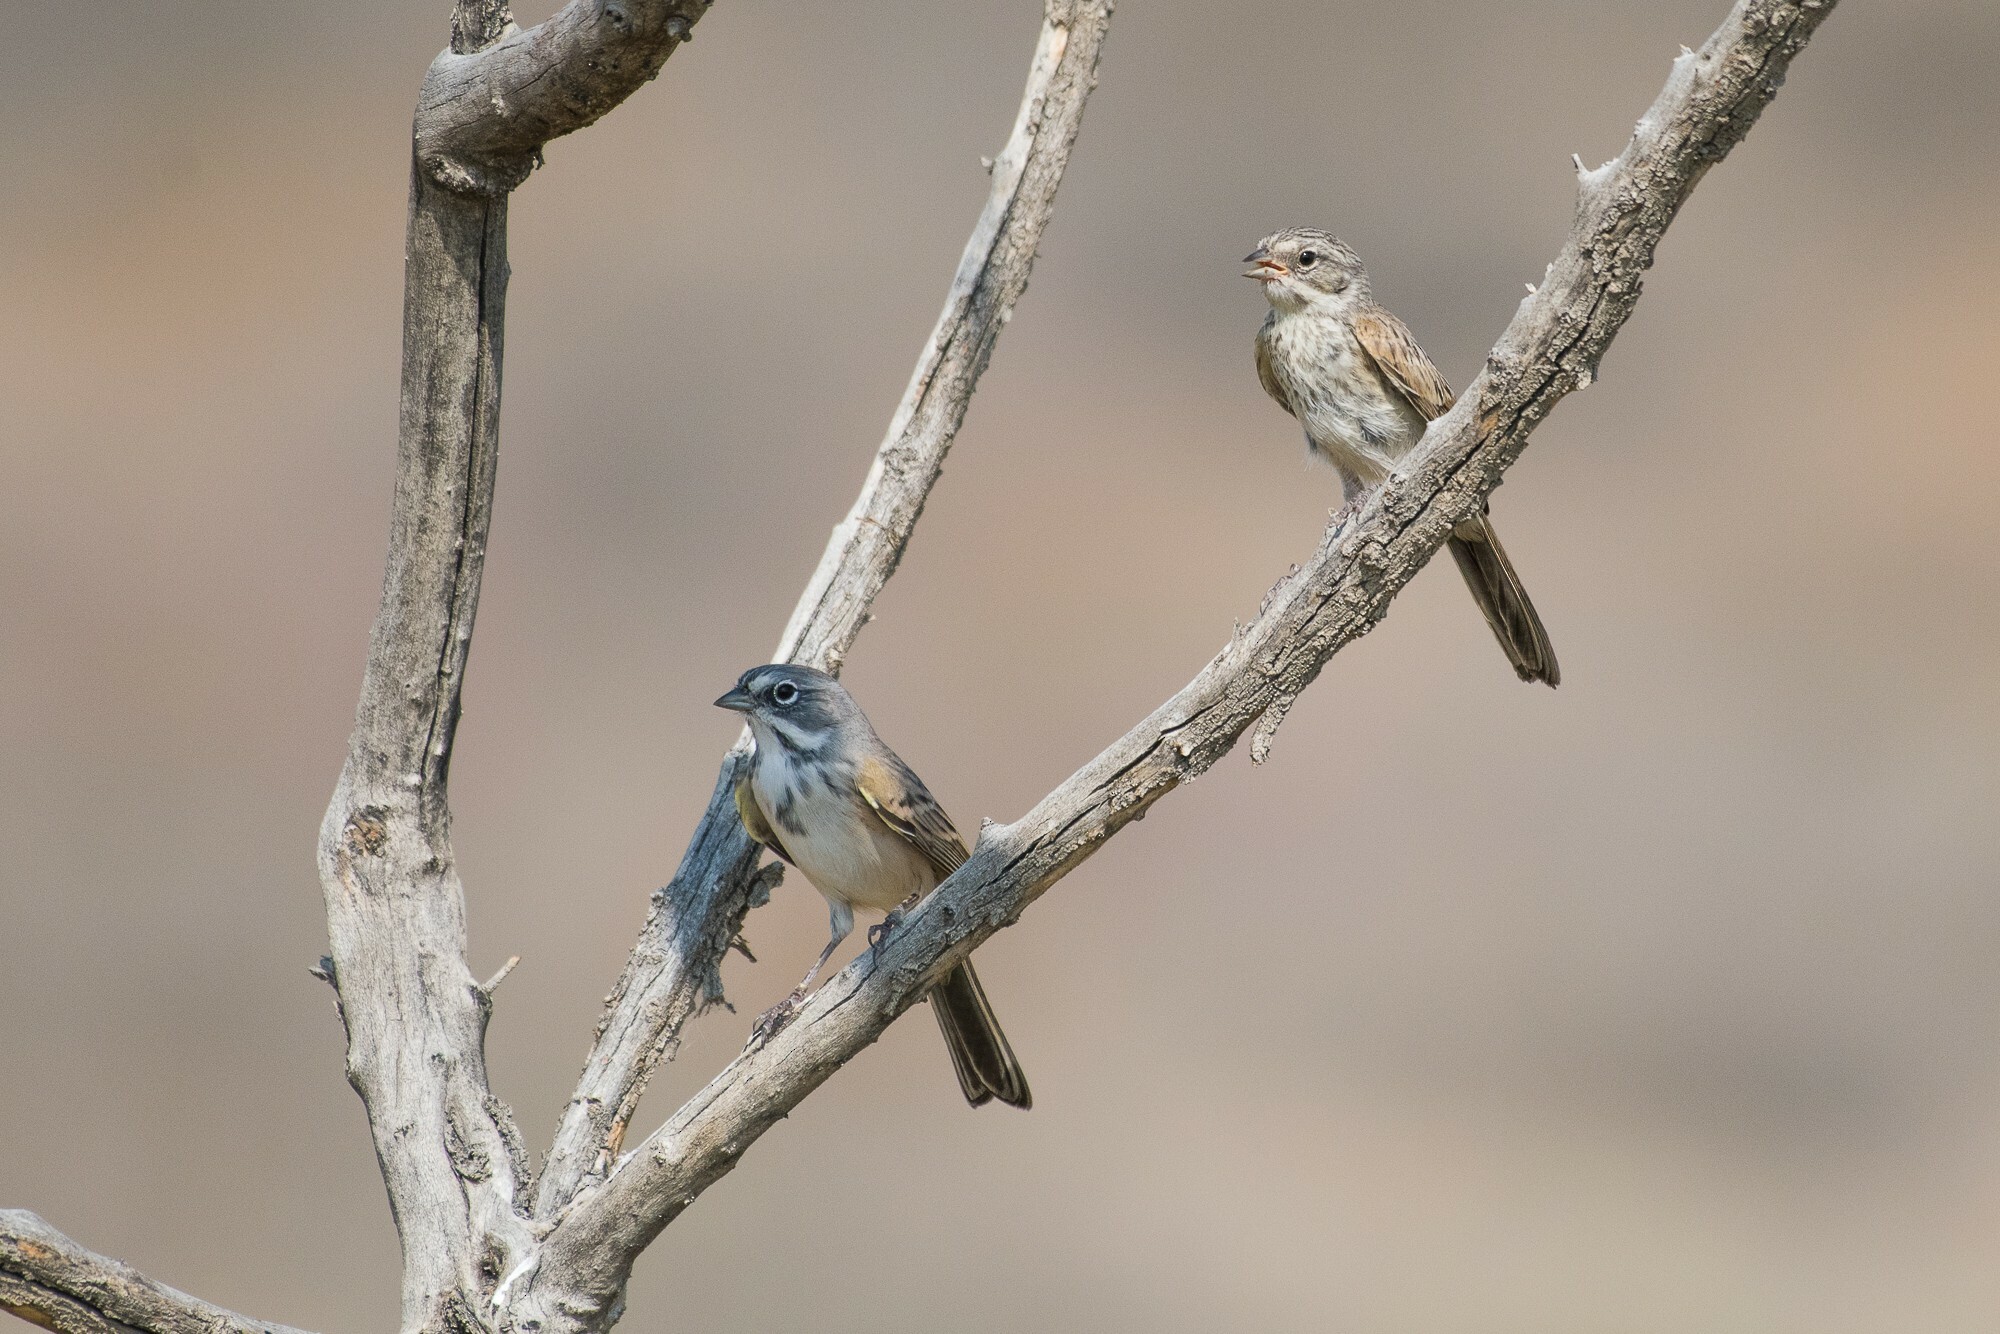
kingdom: Animalia
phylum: Chordata
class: Aves
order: Passeriformes
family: Passerellidae
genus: Artemisiospiza
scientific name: Artemisiospiza belli
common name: Bell's sparrow
